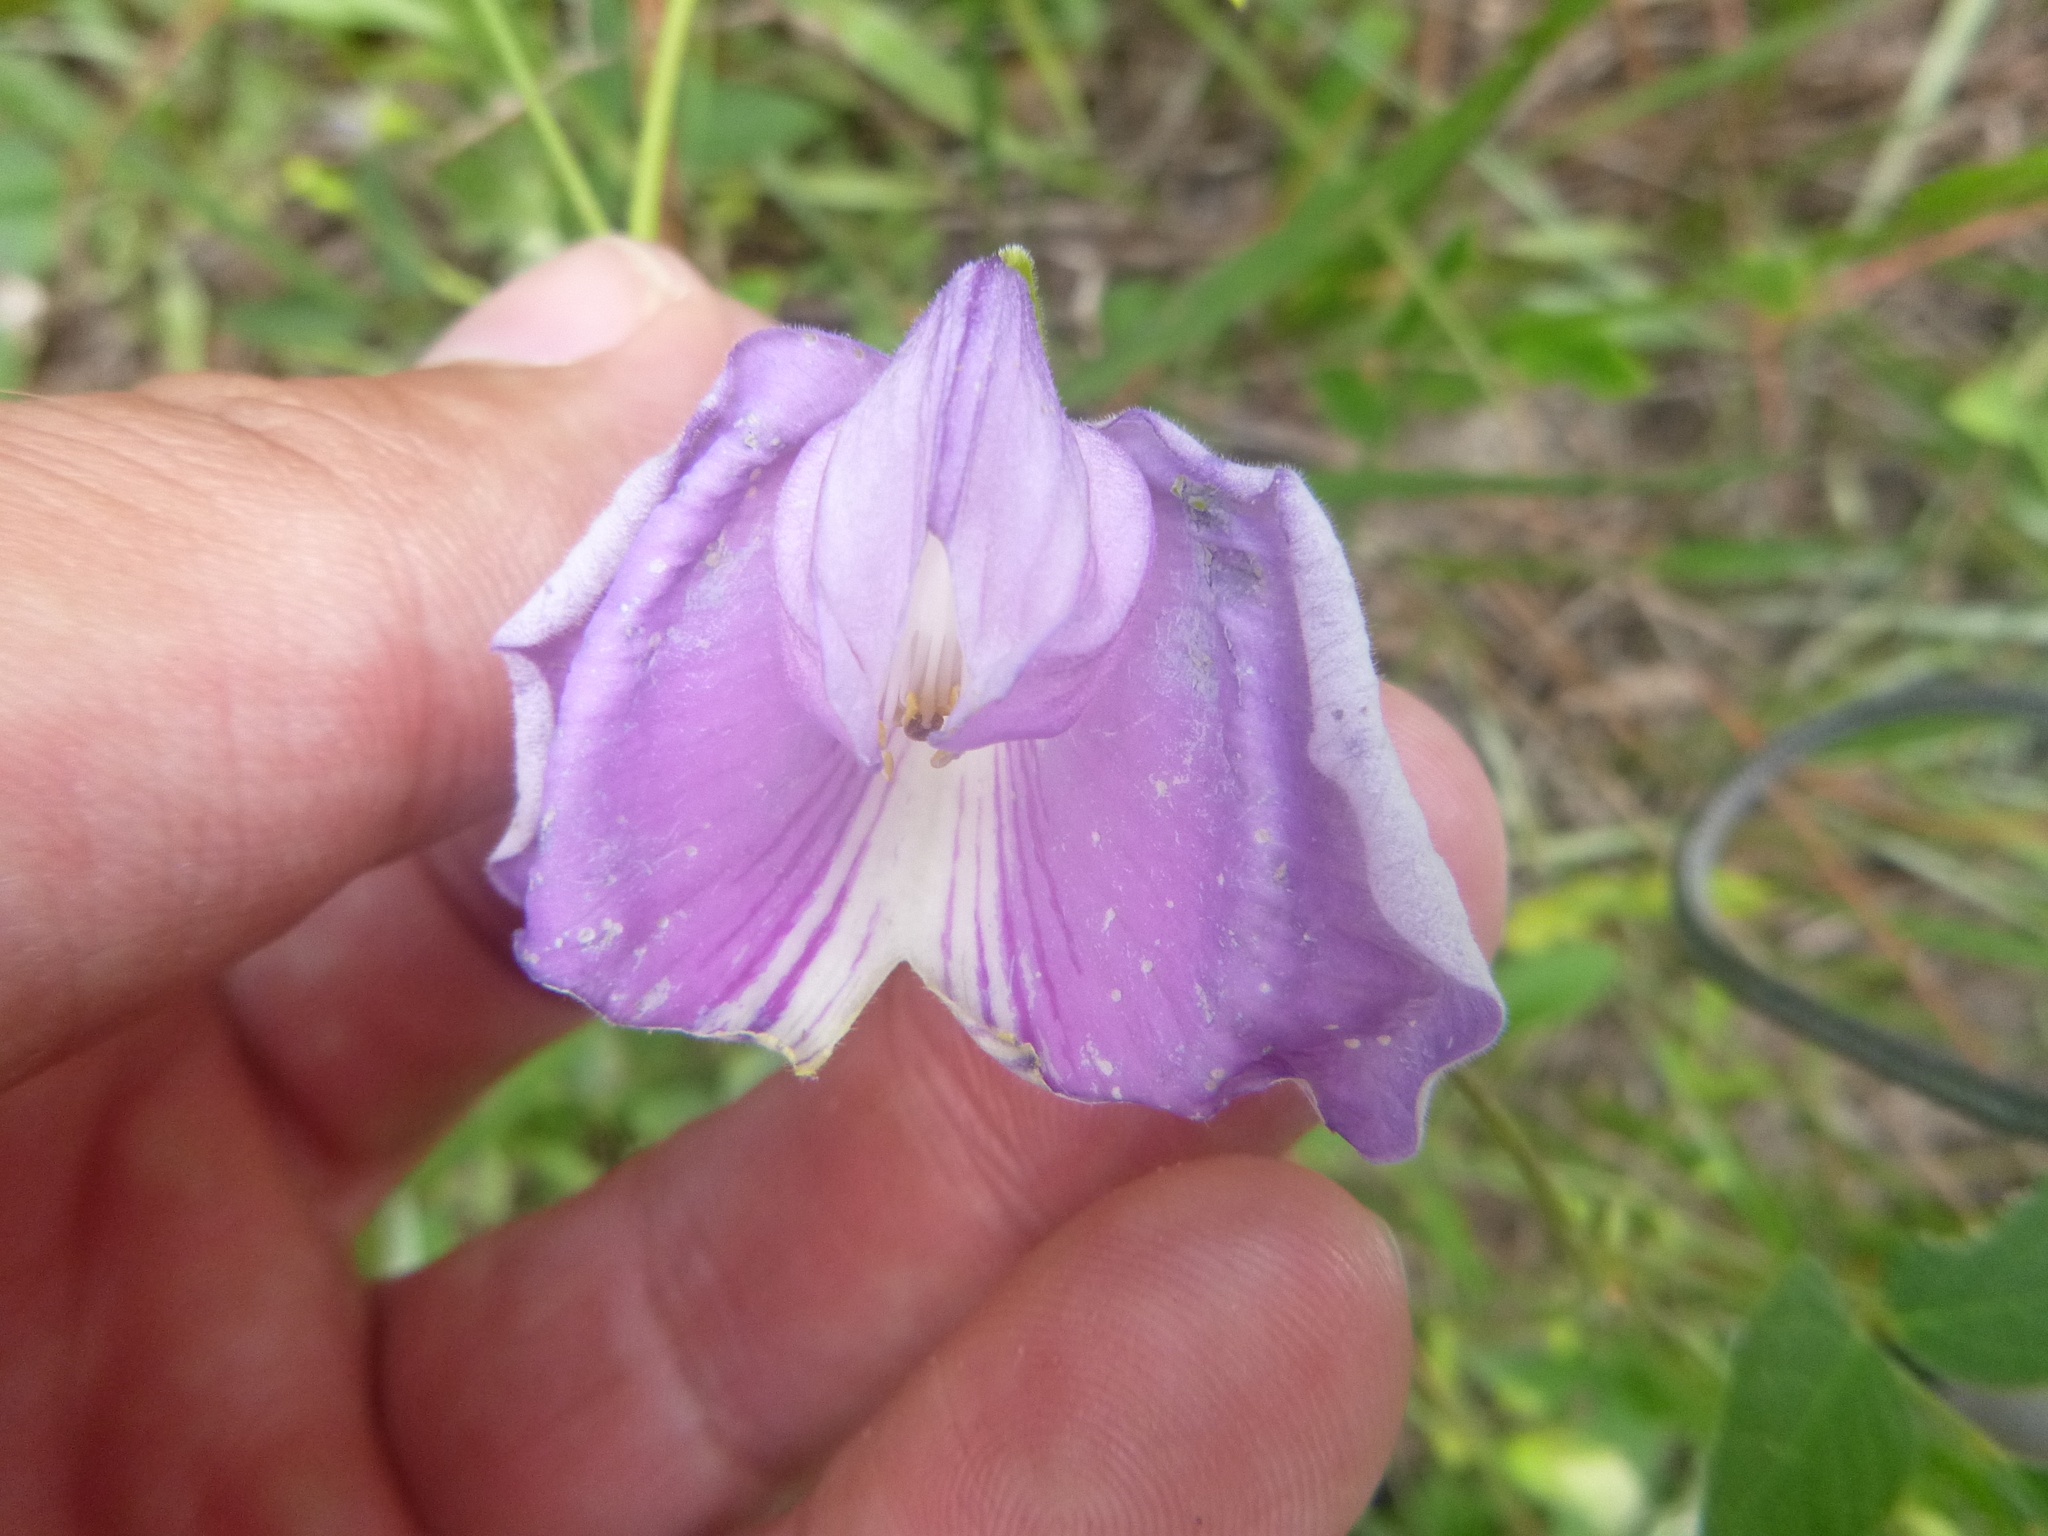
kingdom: Plantae
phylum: Tracheophyta
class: Magnoliopsida
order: Fabales
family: Fabaceae
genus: Centrosema
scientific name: Centrosema virginianum
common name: Butterfly-pea
